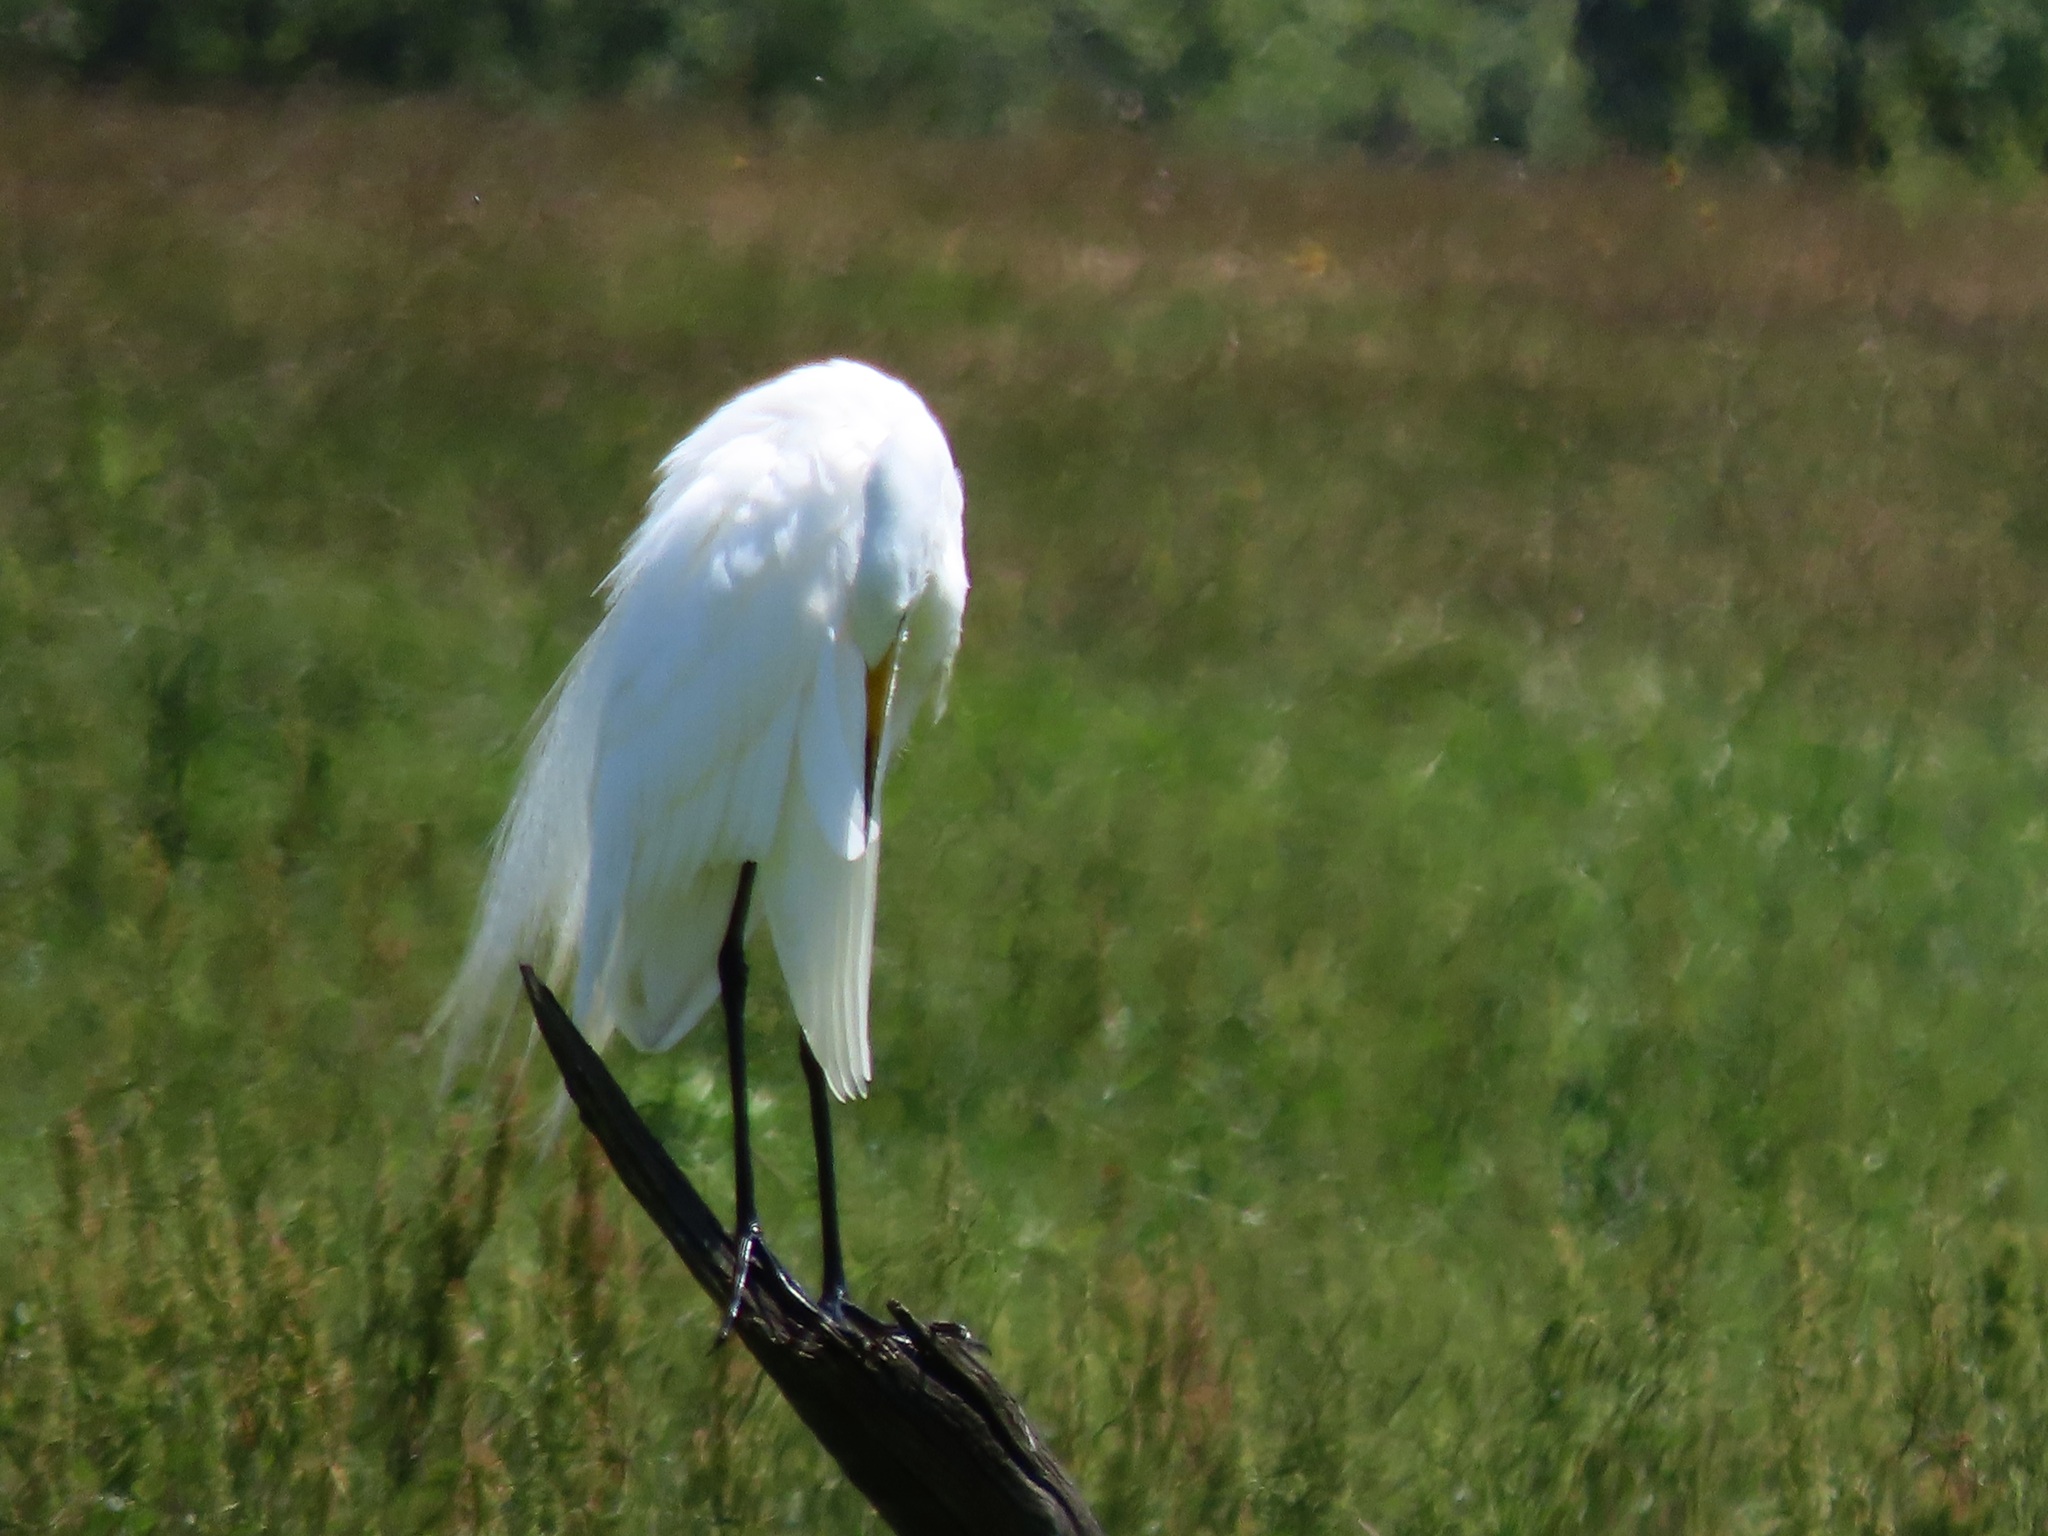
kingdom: Animalia
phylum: Chordata
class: Aves
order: Pelecaniformes
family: Ardeidae
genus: Ardea
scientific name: Ardea alba
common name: Great egret
